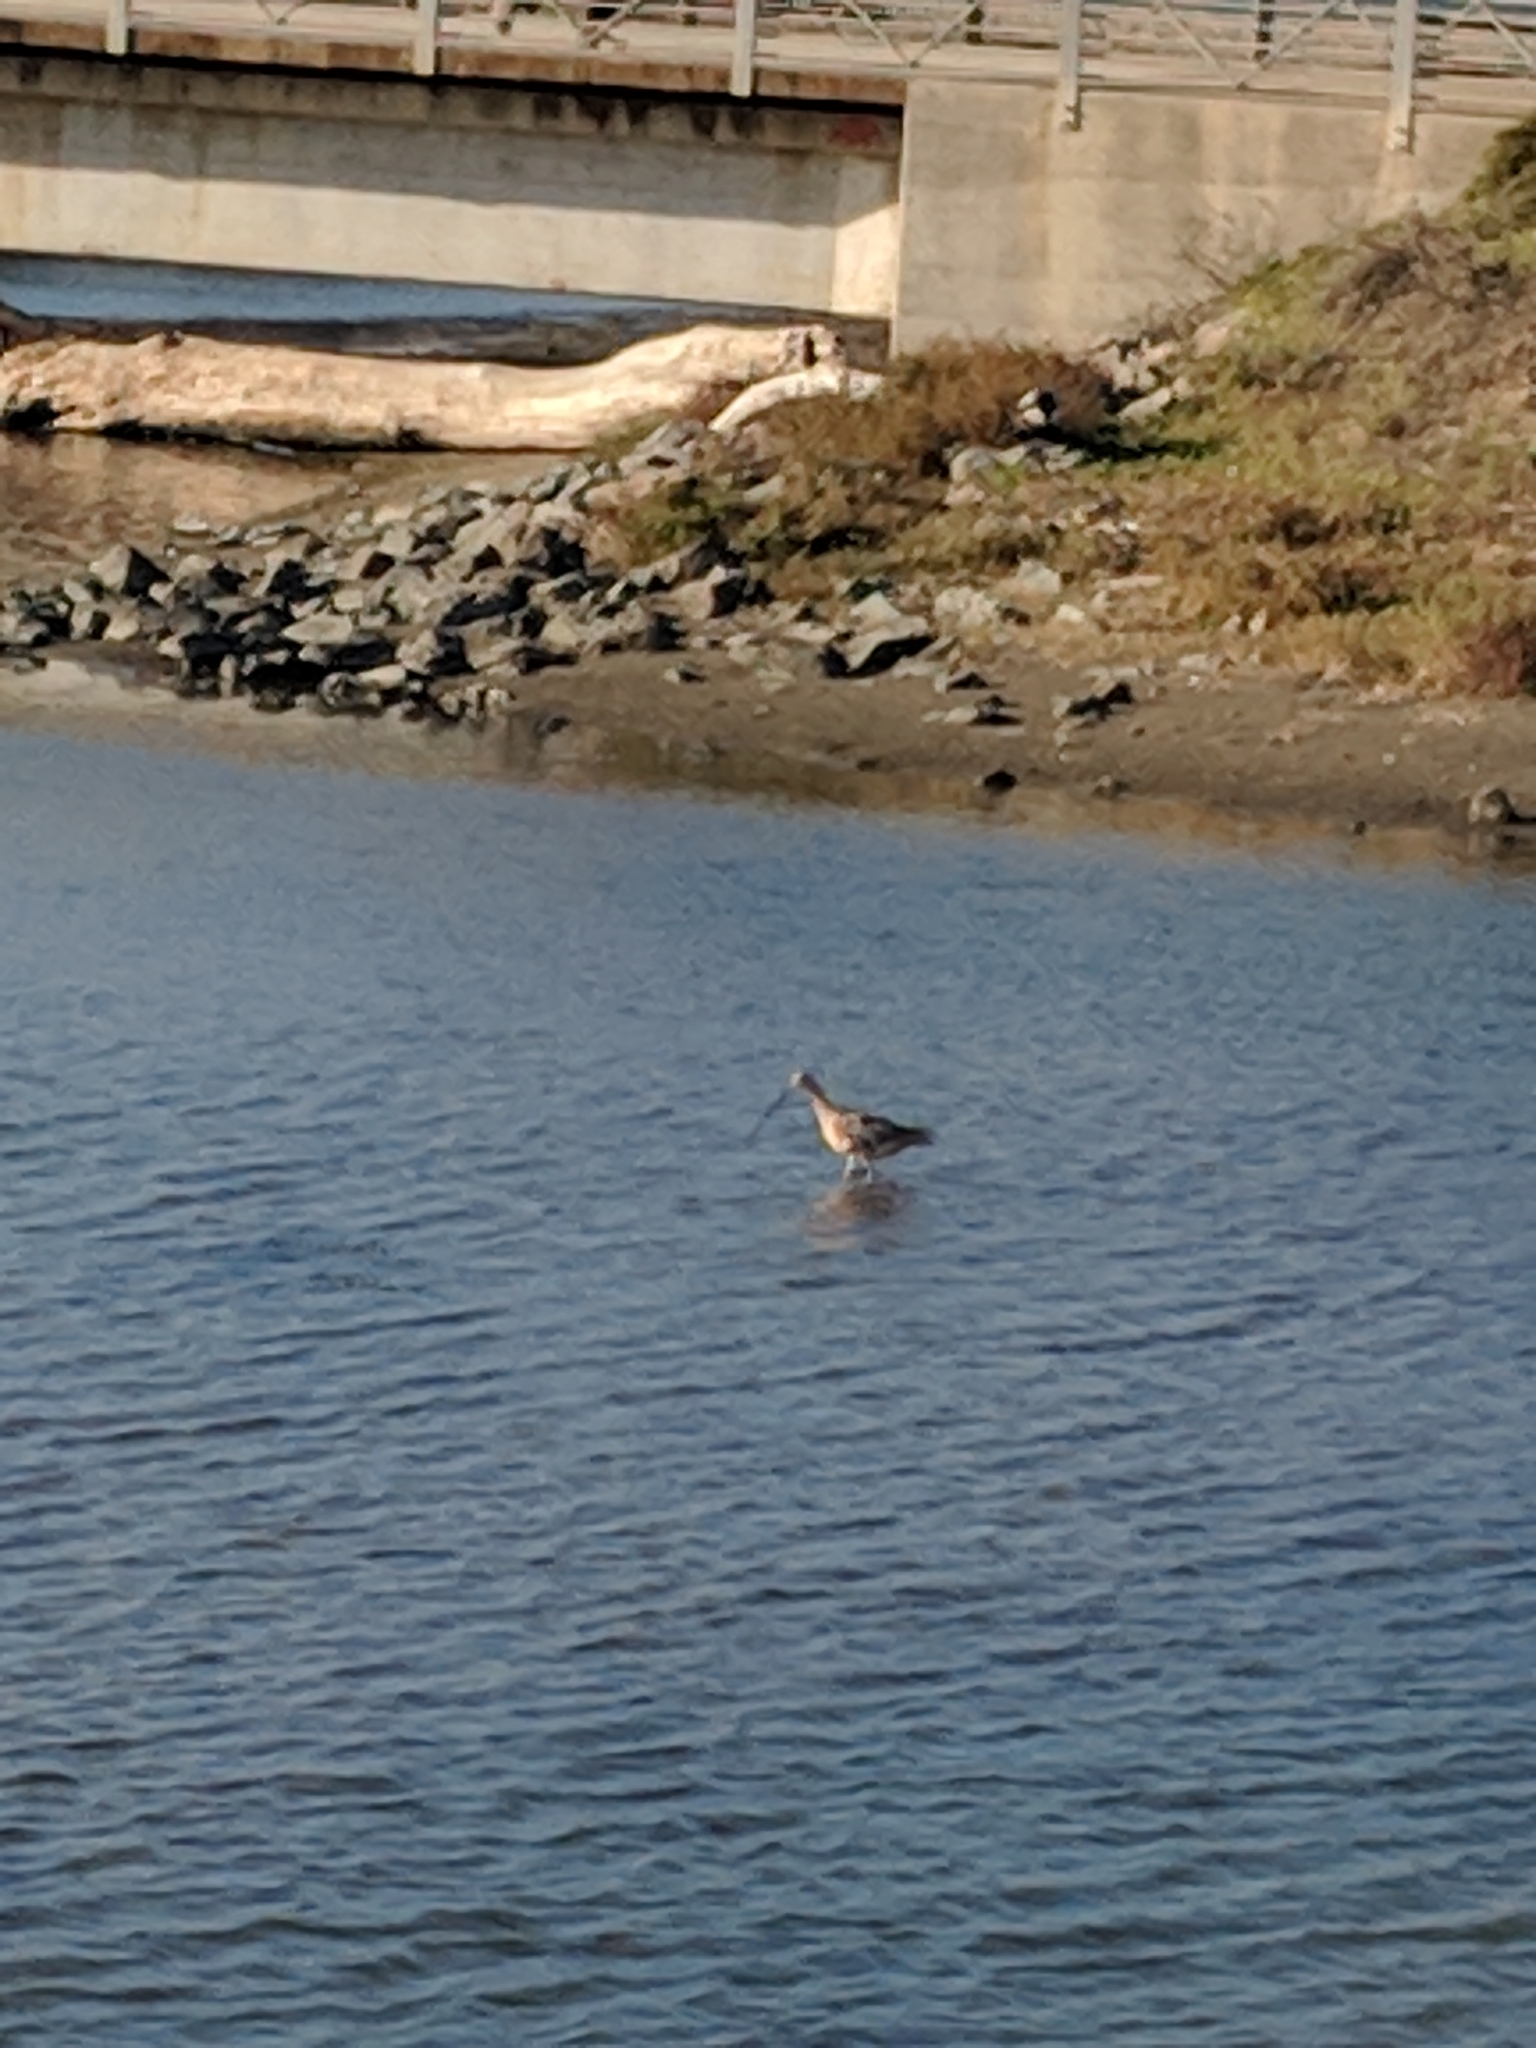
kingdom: Animalia
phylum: Chordata
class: Aves
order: Charadriiformes
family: Scolopacidae
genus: Numenius
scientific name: Numenius americanus
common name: Long-billed curlew
